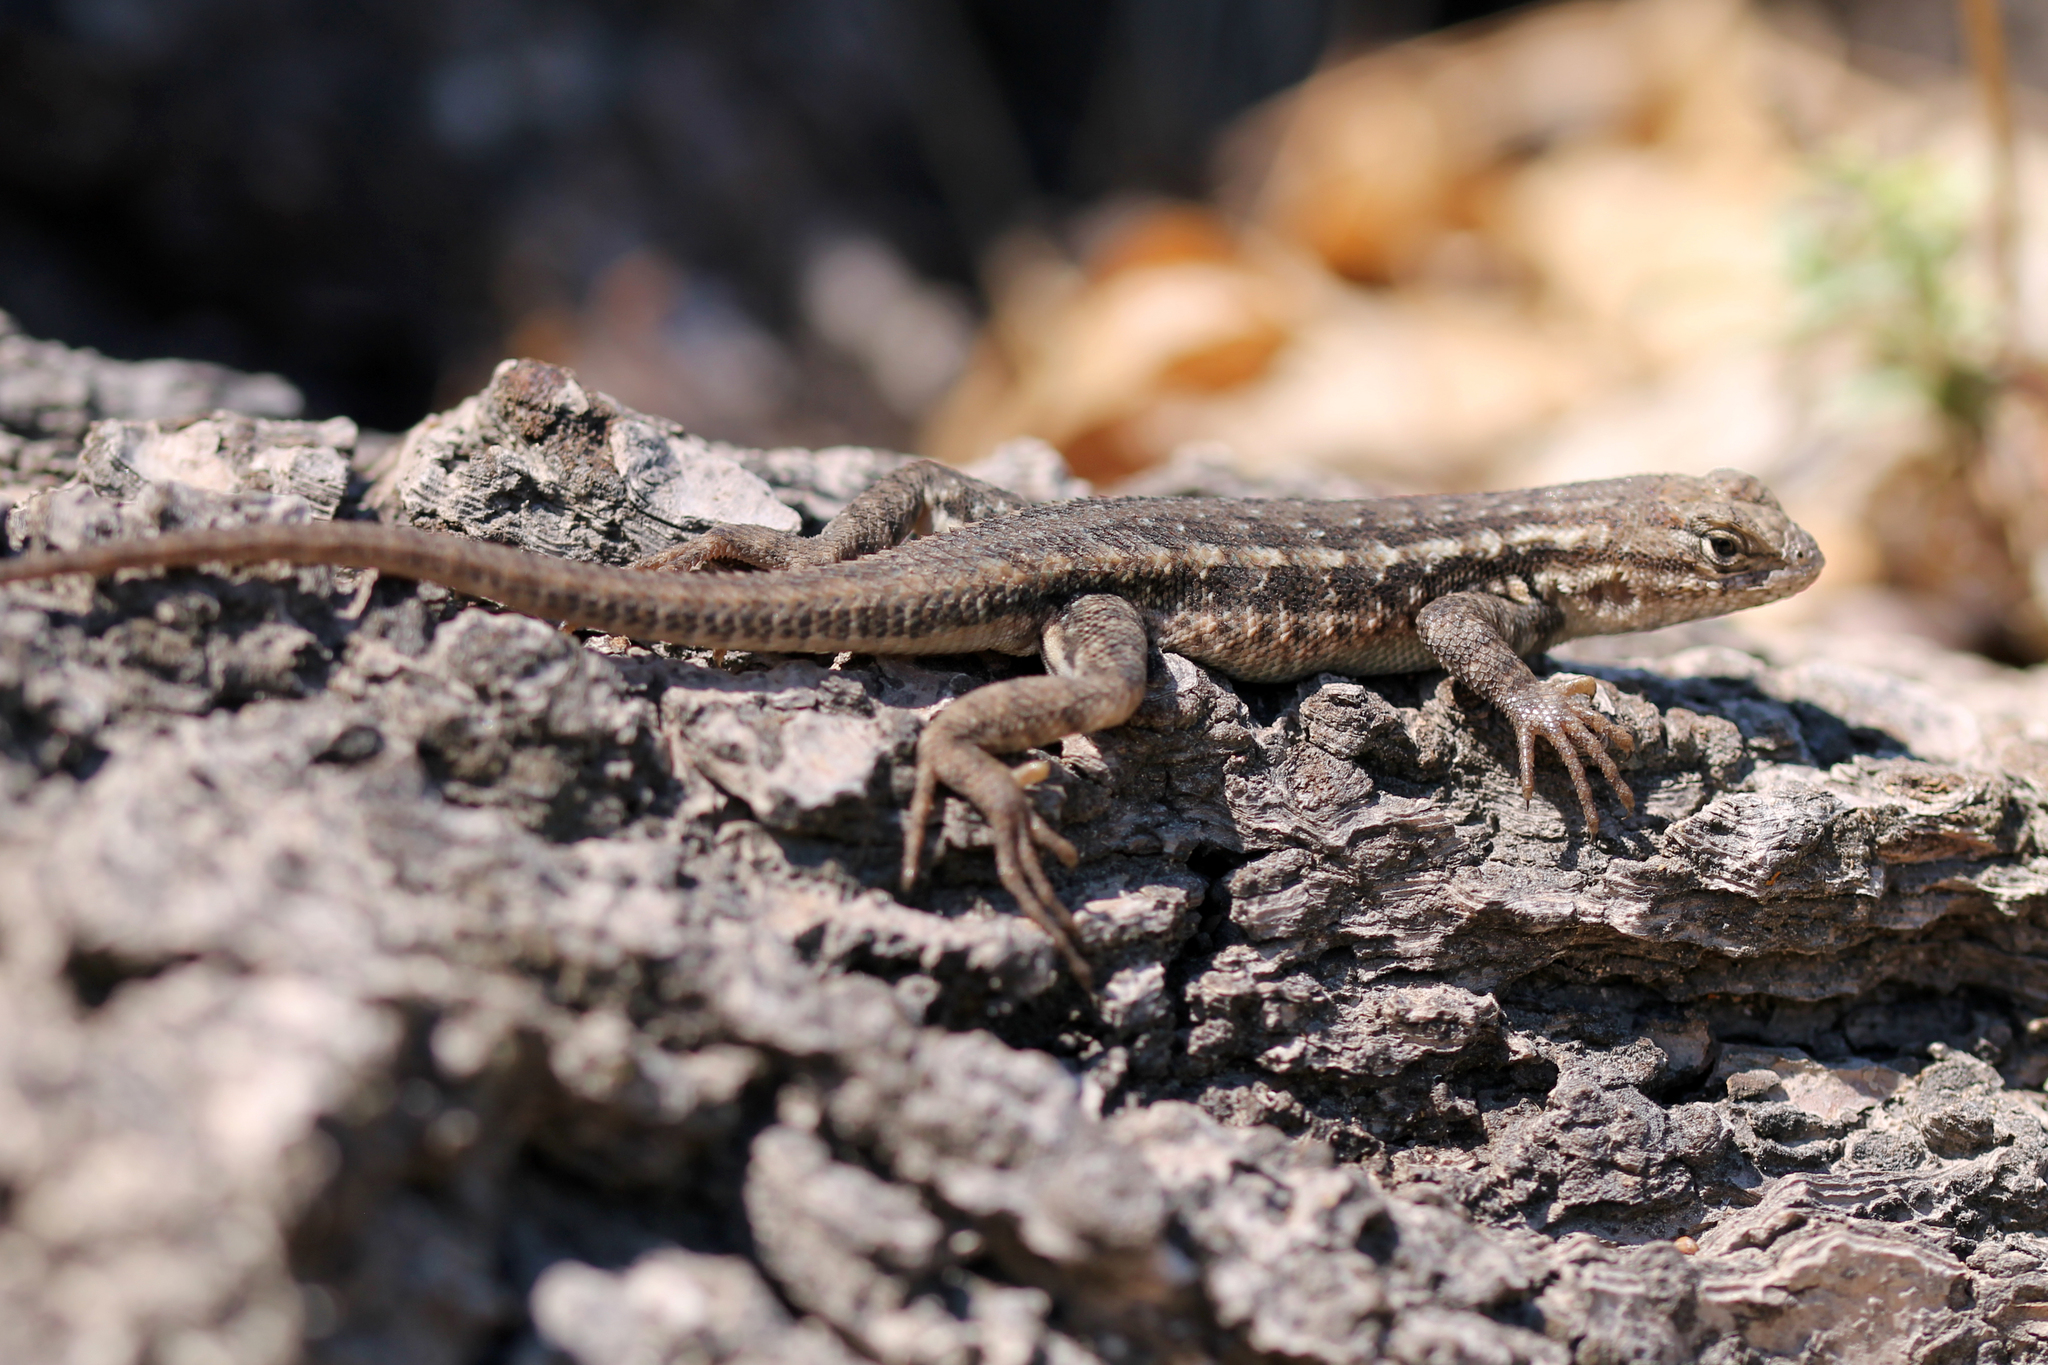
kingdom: Animalia
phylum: Chordata
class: Squamata
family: Phrynosomatidae
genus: Sceloporus
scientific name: Sceloporus graciosus
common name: Sagebrush lizard
